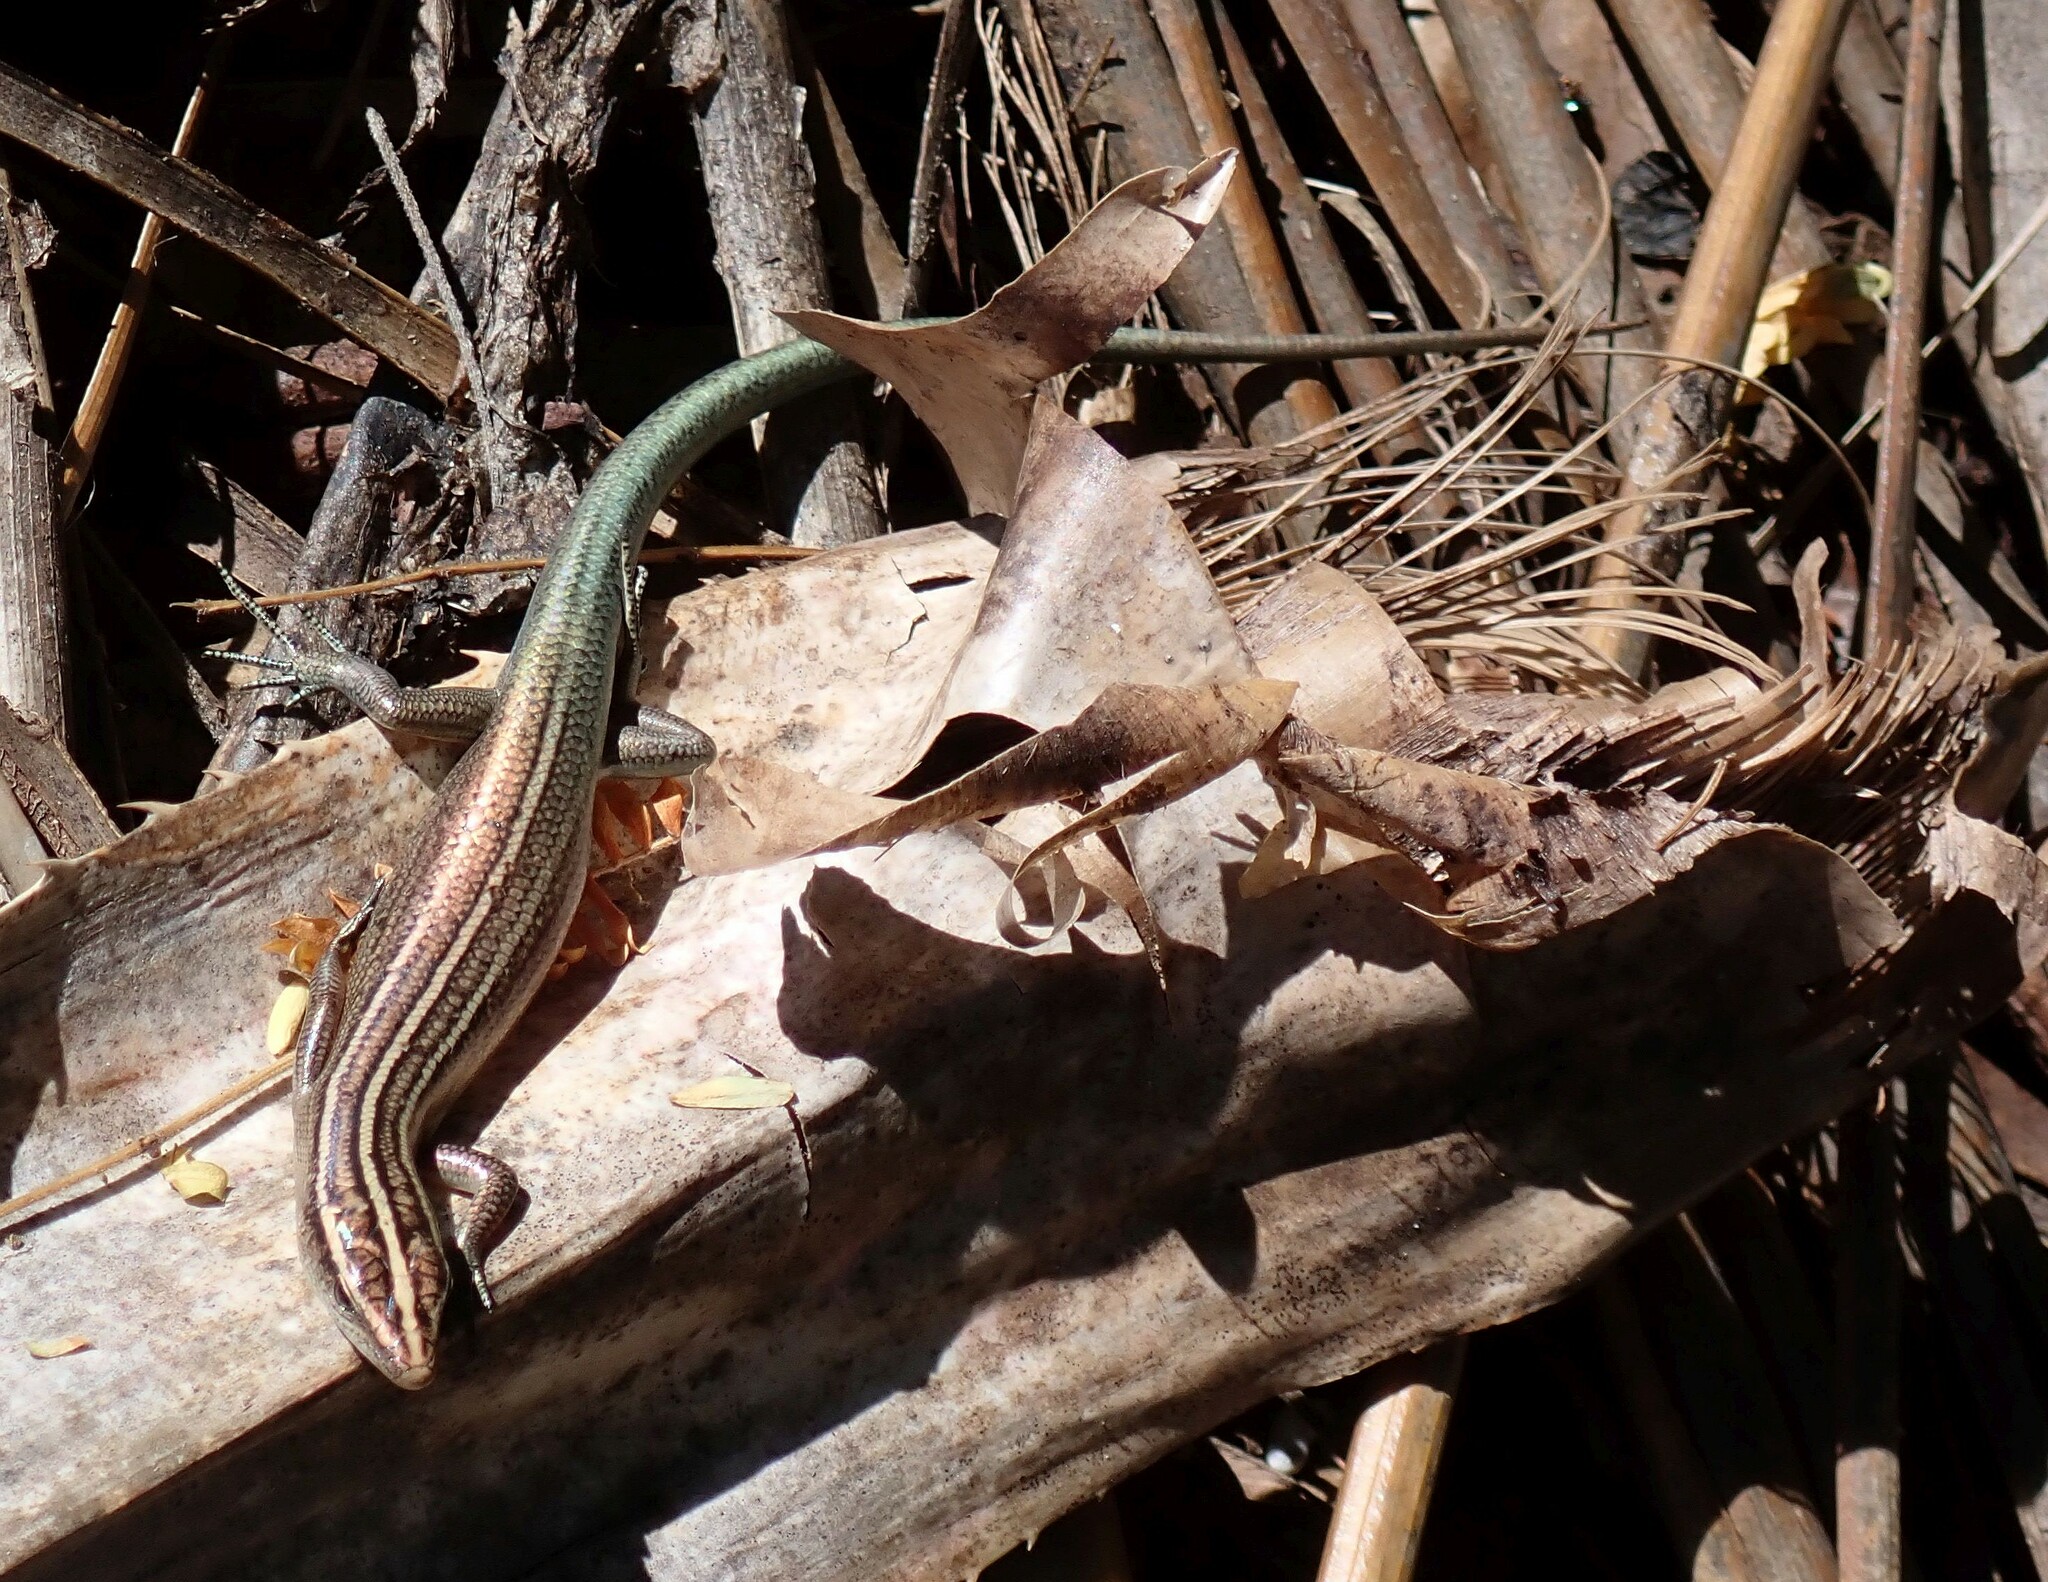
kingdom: Animalia
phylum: Chordata
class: Squamata
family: Scincidae
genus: Emoia
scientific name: Emoia cyanura
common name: Copper-tailed skink
